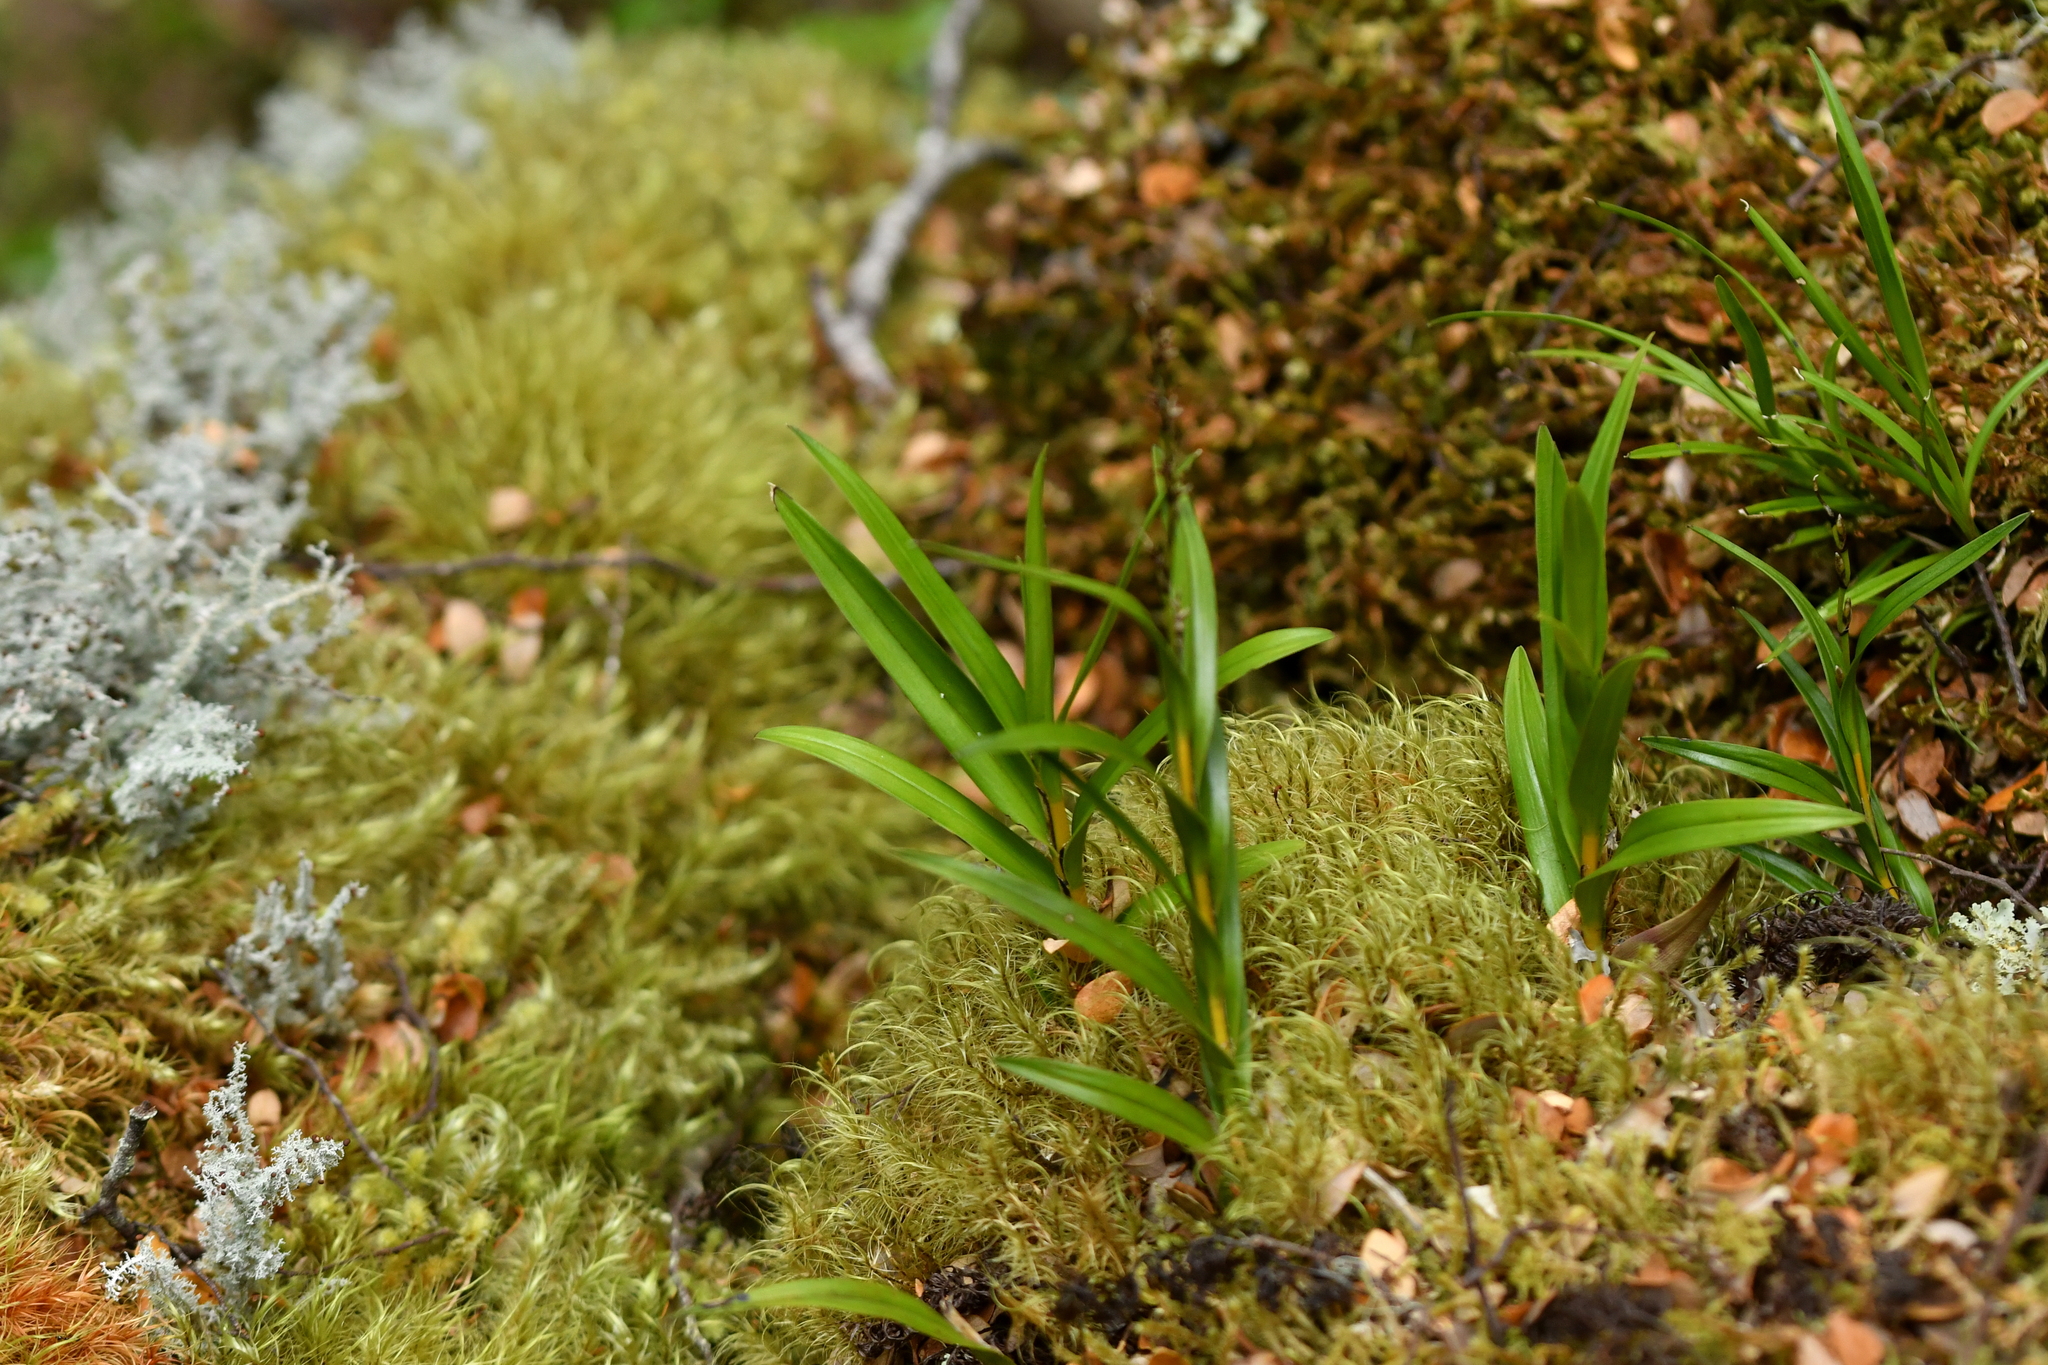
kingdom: Plantae
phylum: Tracheophyta
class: Liliopsida
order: Asparagales
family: Orchidaceae
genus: Earina
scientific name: Earina autumnalis
